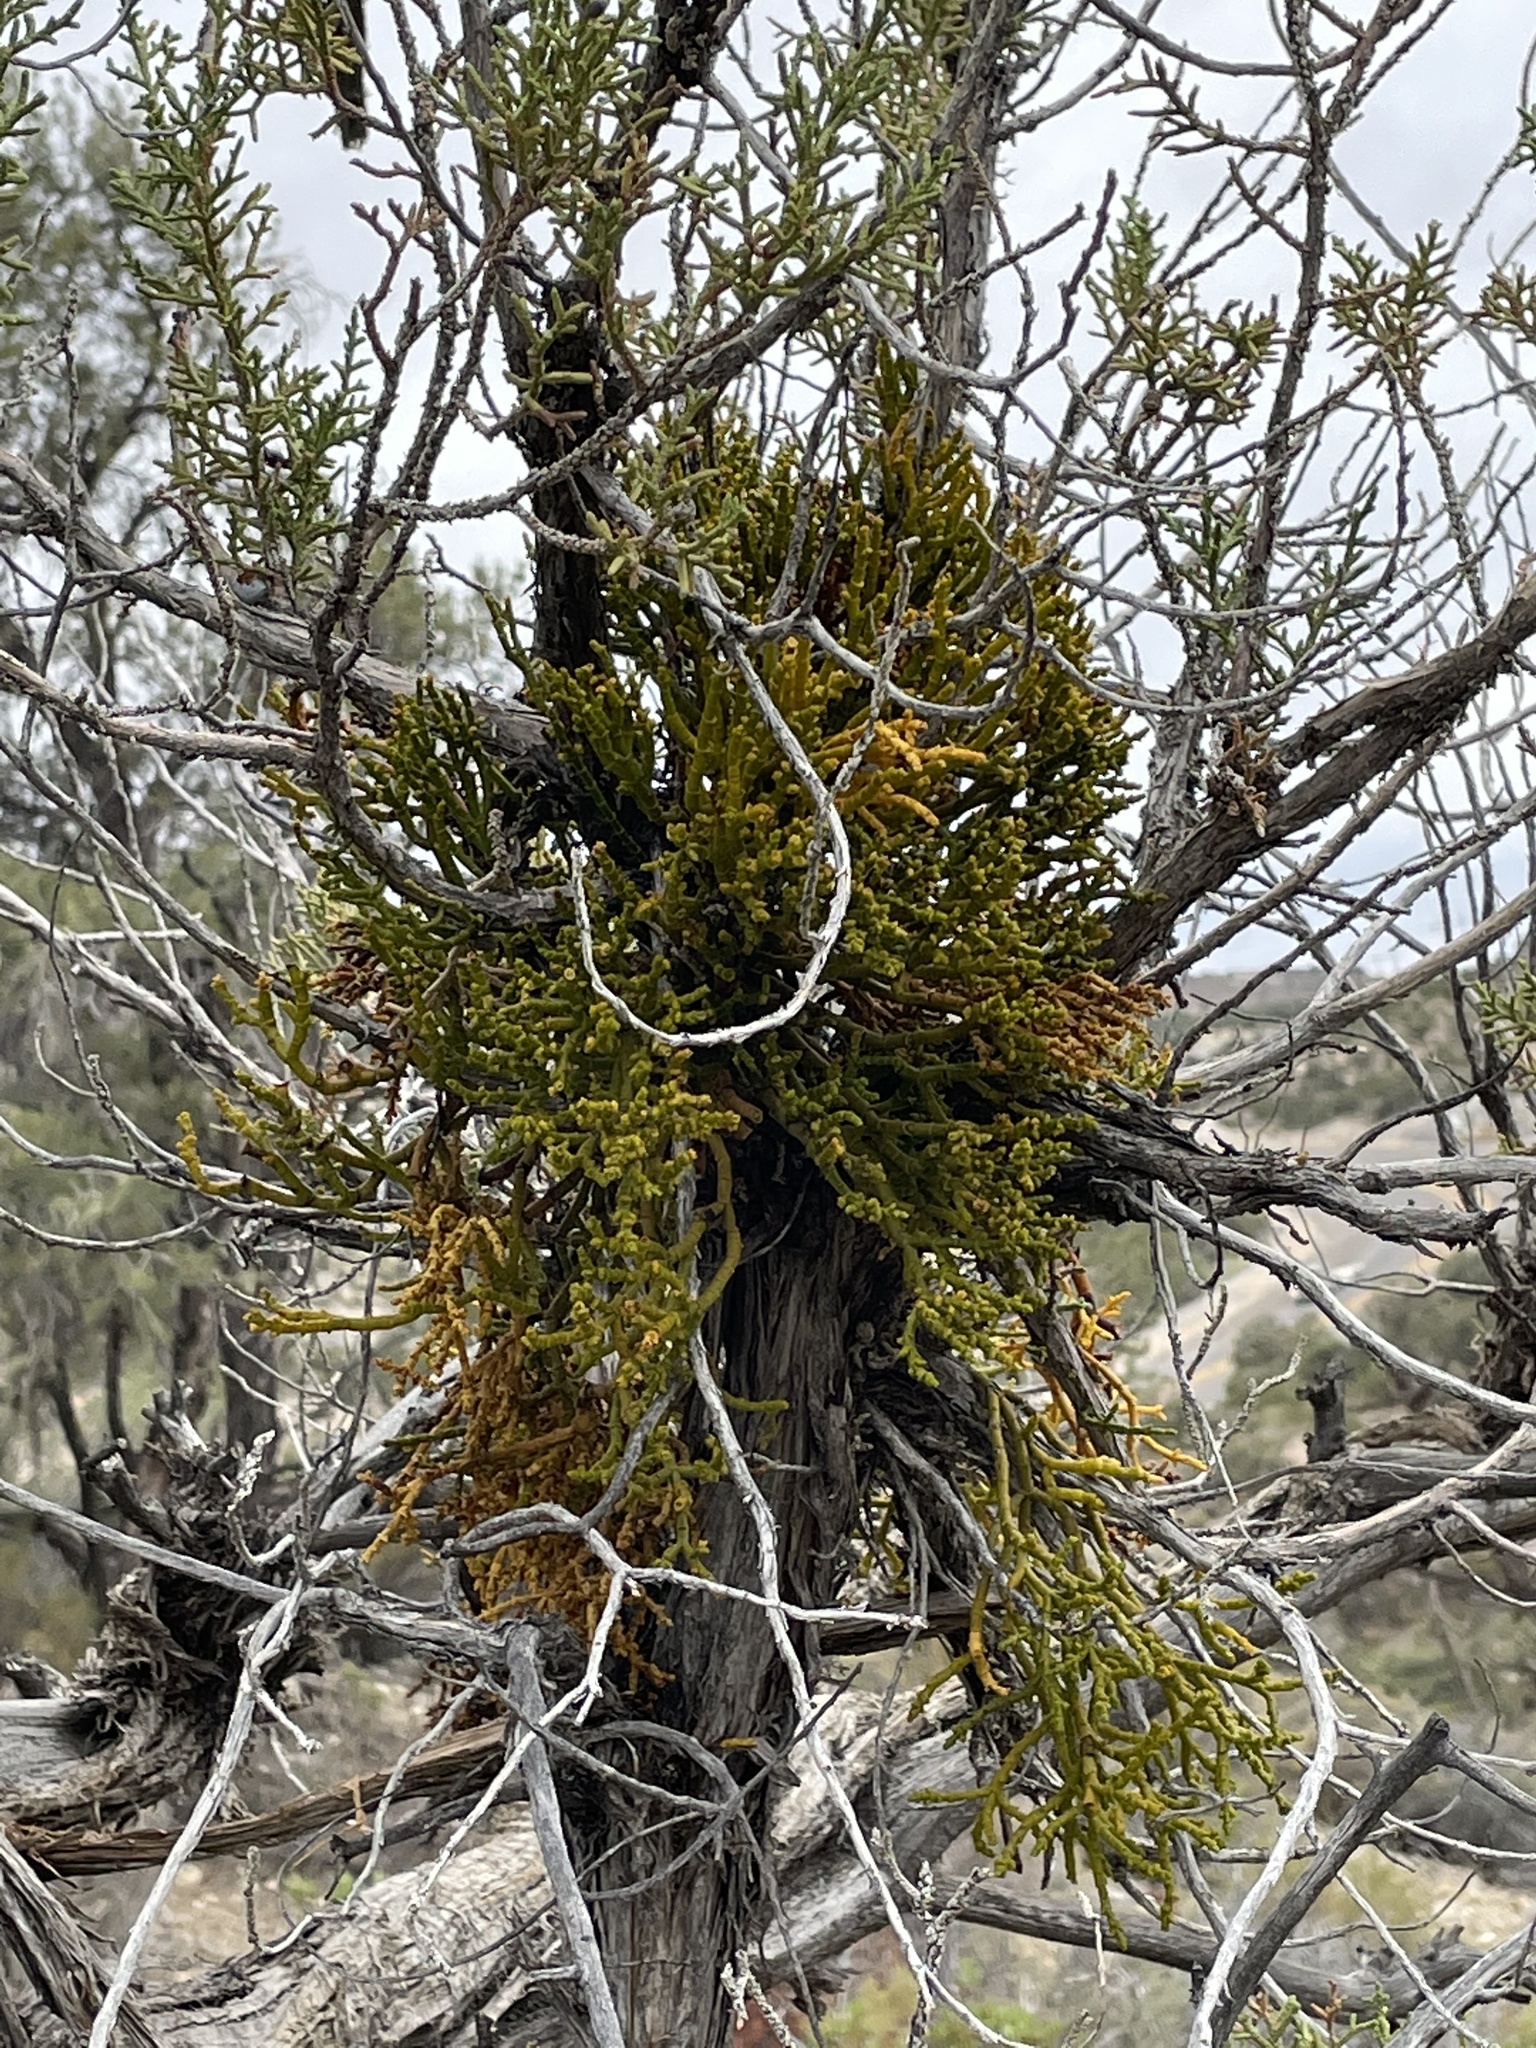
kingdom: Plantae
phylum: Tracheophyta
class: Magnoliopsida
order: Santalales
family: Viscaceae
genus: Phoradendron
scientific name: Phoradendron juniperinum
